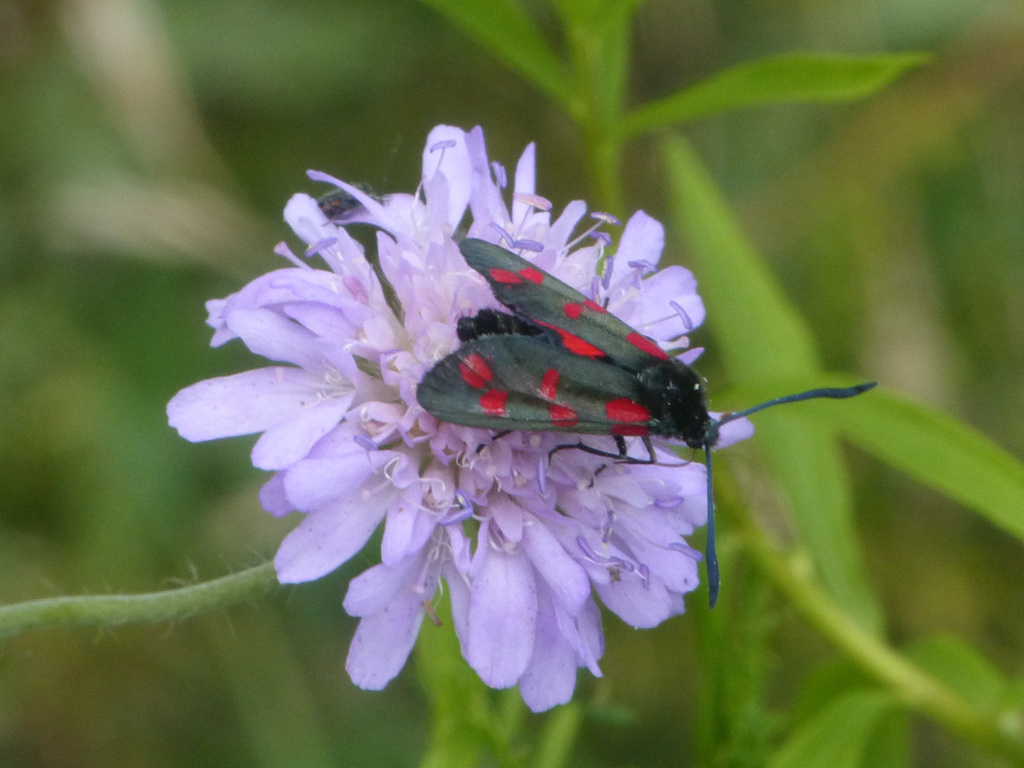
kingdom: Animalia
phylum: Arthropoda
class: Insecta
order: Lepidoptera
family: Zygaenidae
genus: Zygaena
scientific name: Zygaena filipendulae
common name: Six-spot burnet
